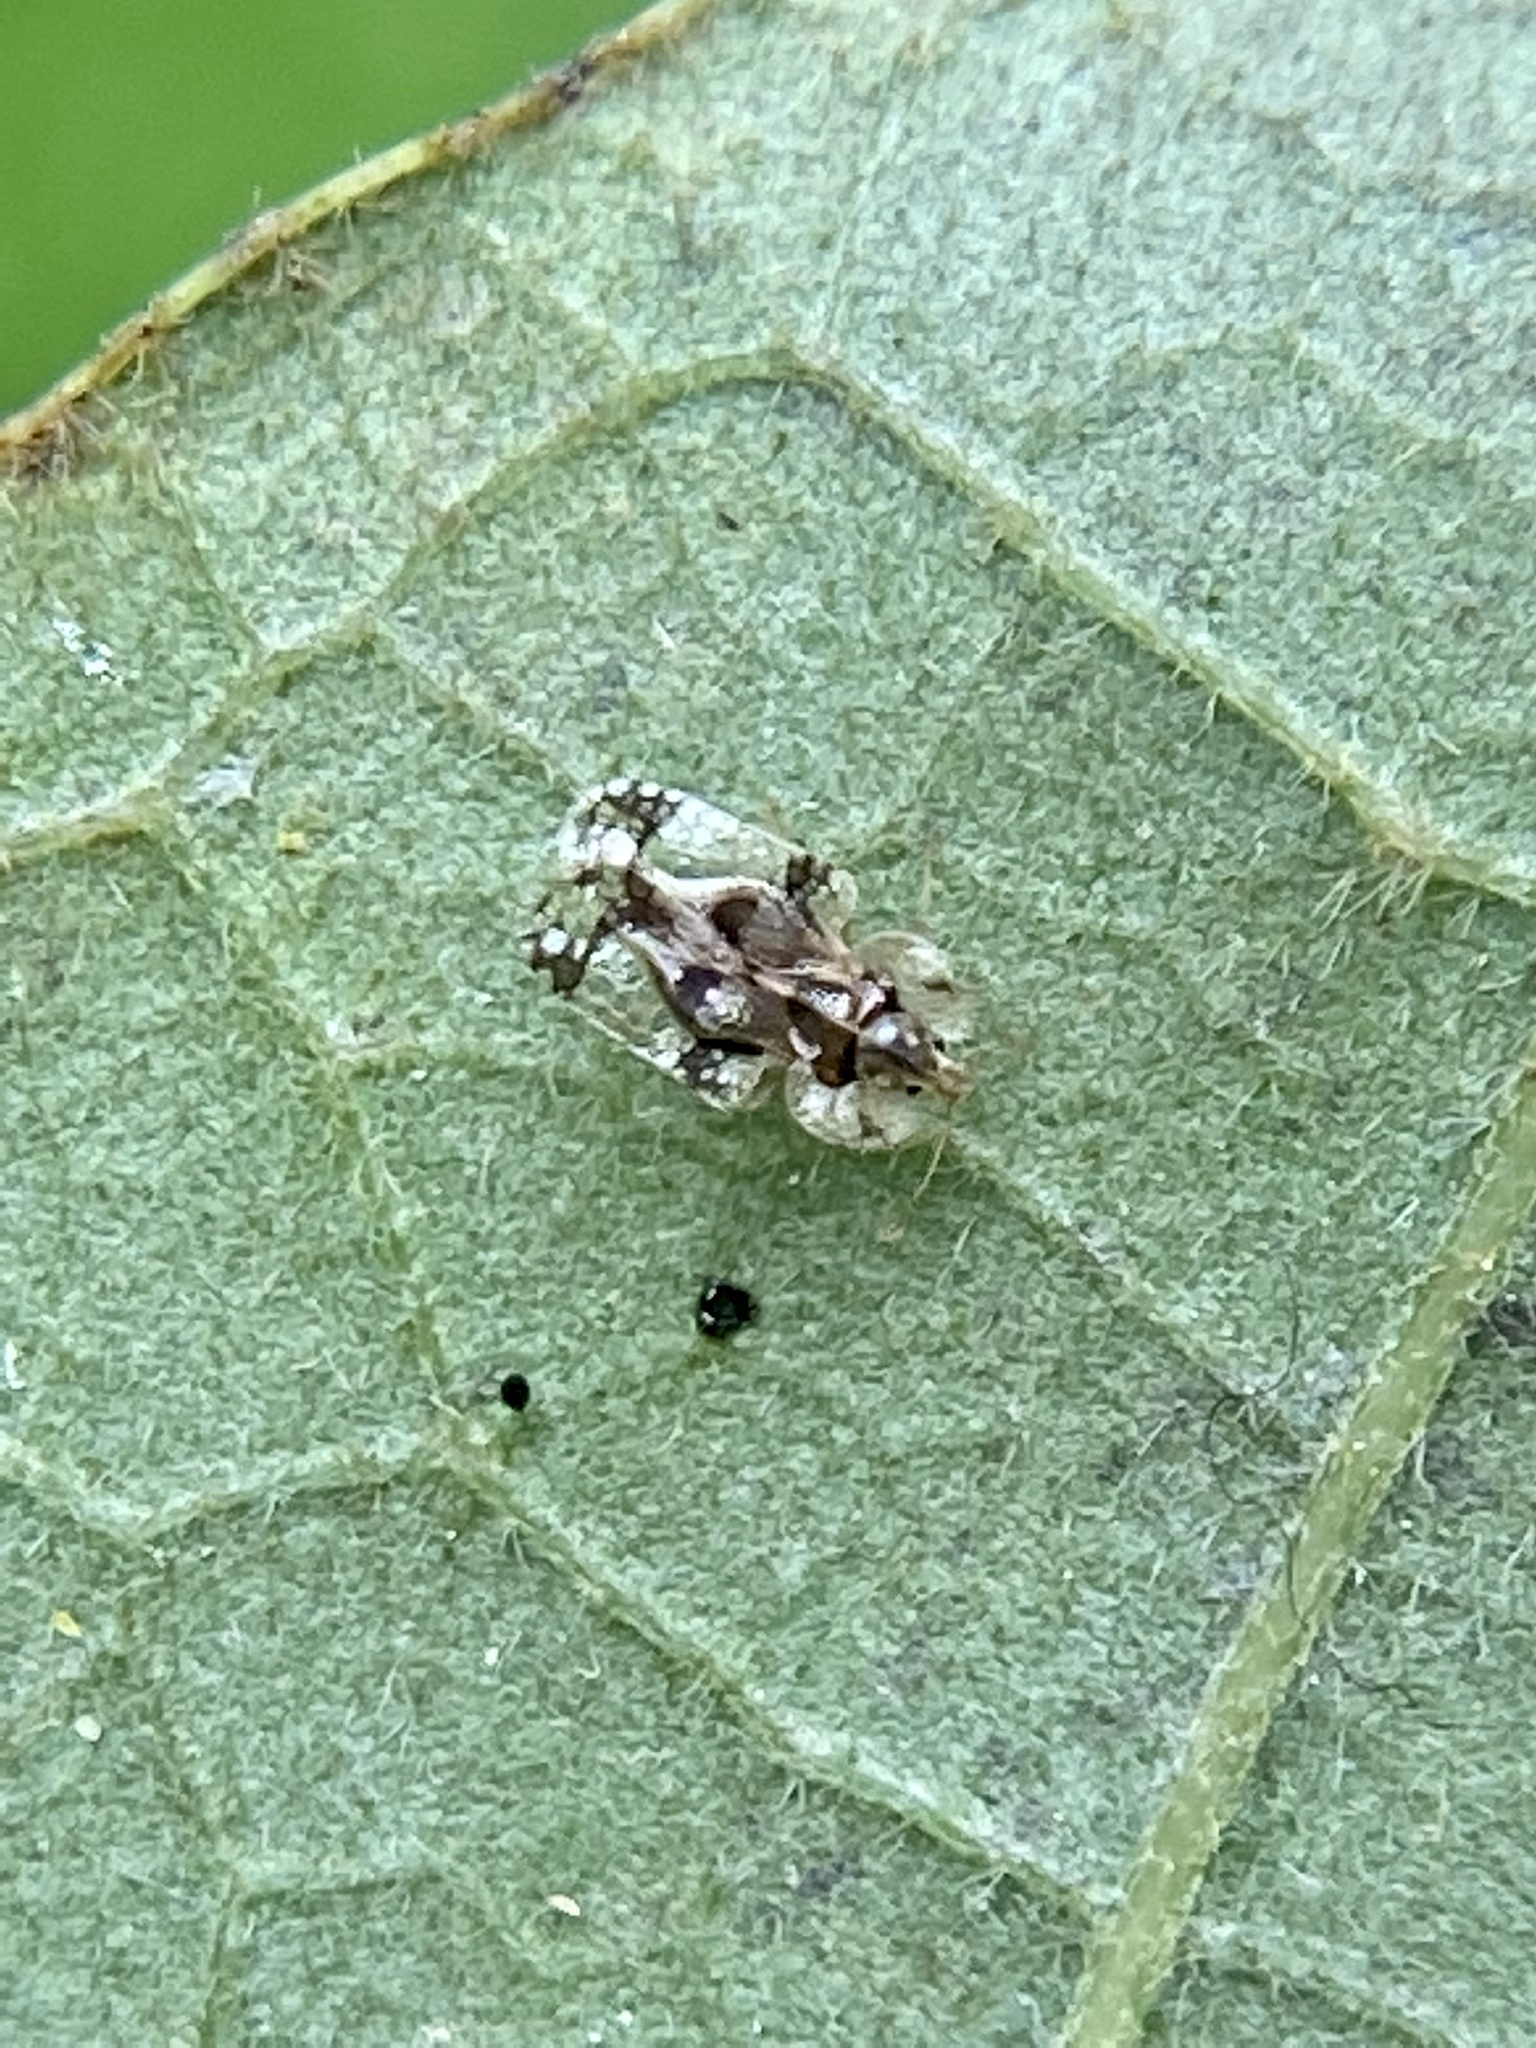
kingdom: Animalia
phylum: Arthropoda
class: Insecta
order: Hemiptera
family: Tingidae
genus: Corythucha
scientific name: Corythucha arcuata
